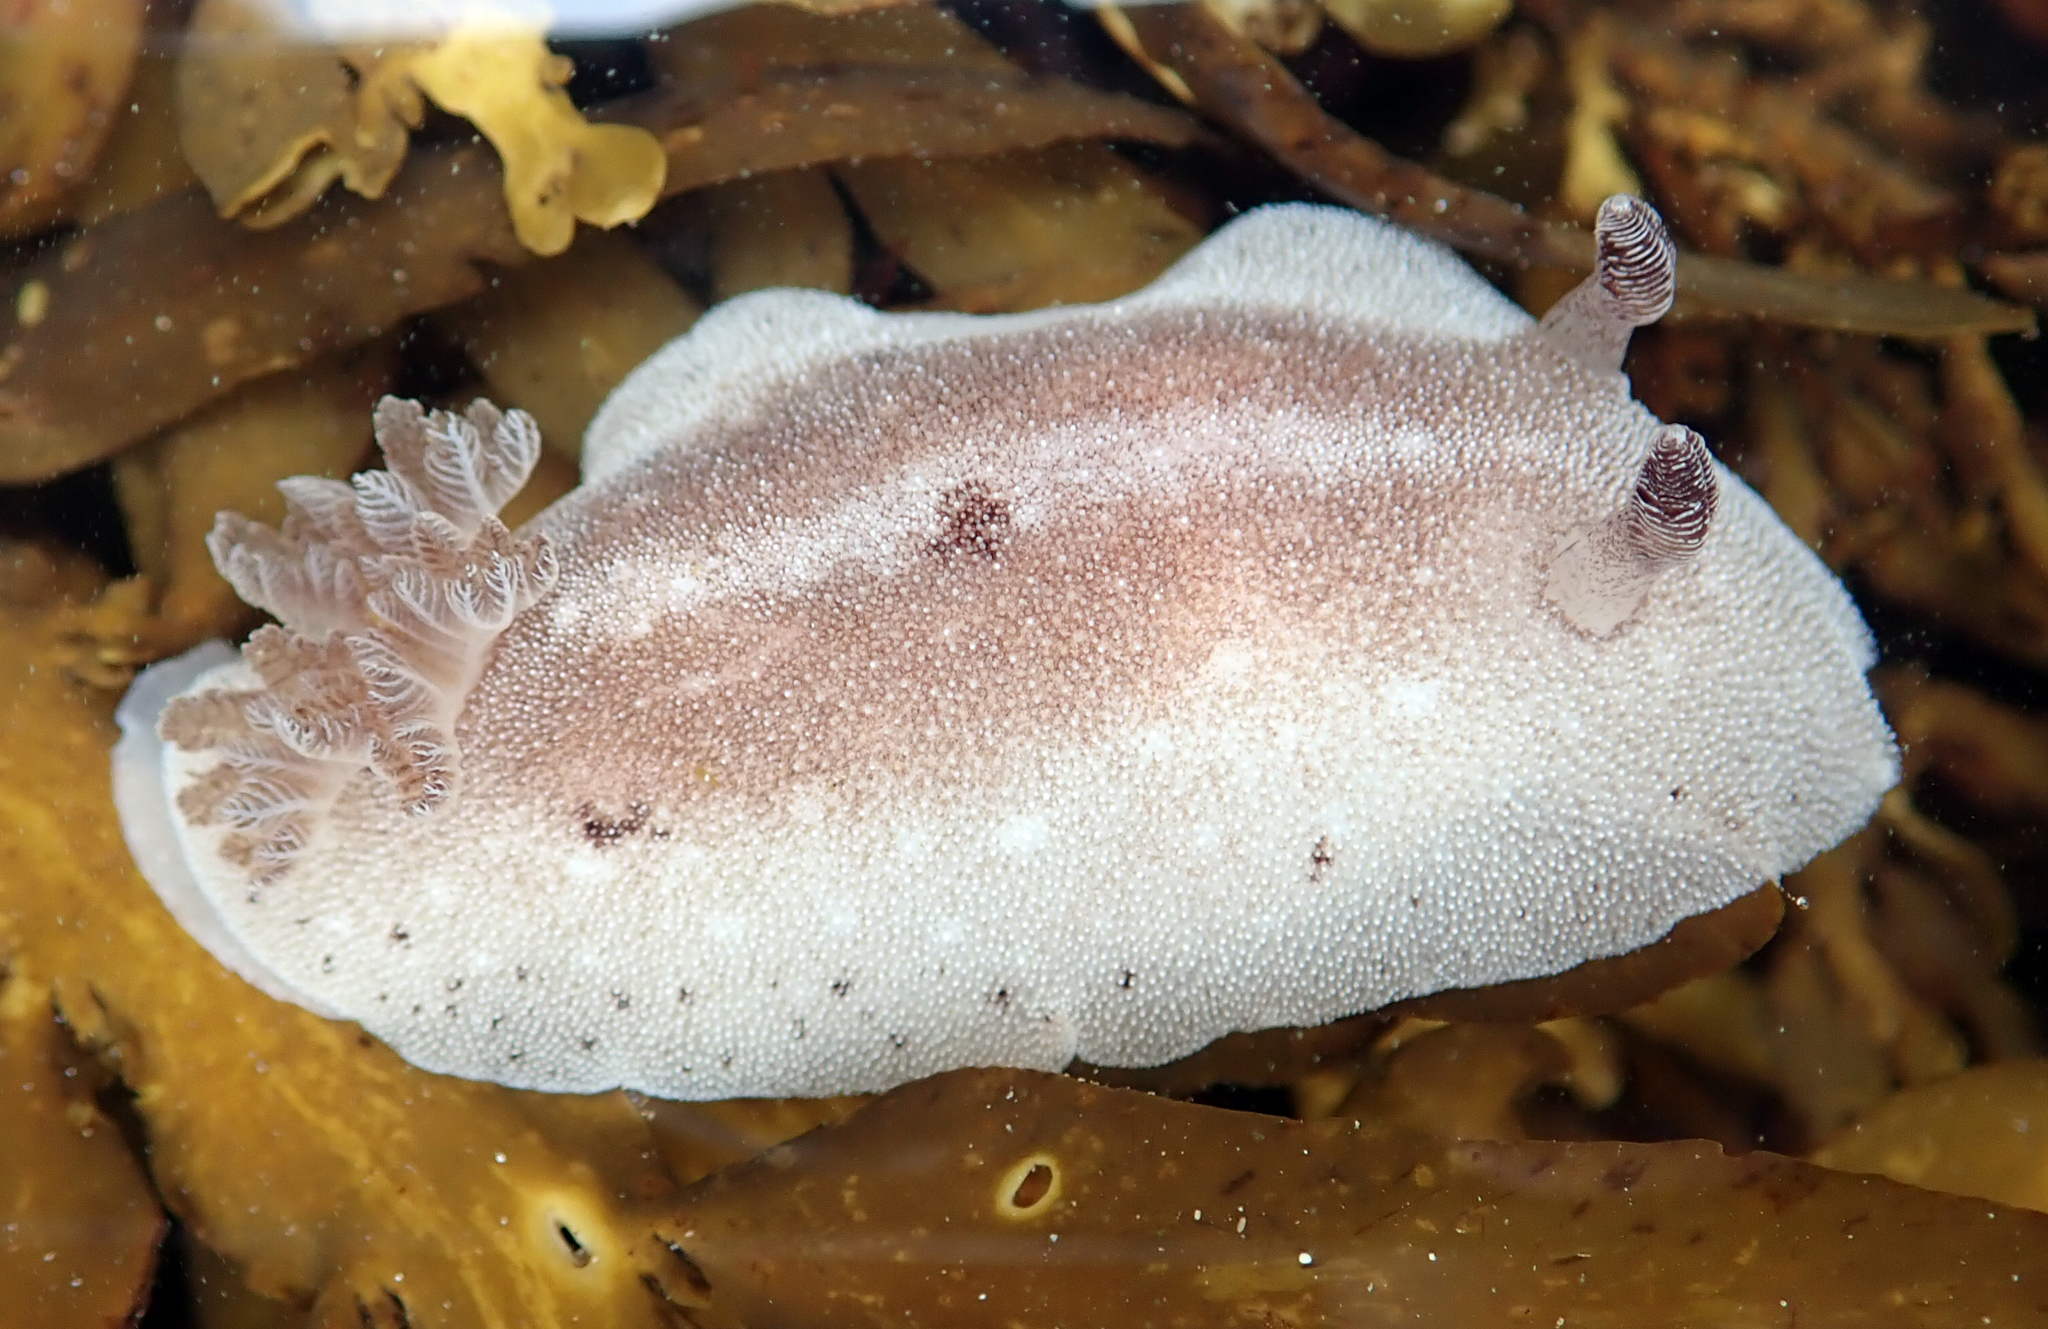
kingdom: Animalia
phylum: Mollusca
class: Gastropoda
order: Nudibranchia
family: Discodorididae
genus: Alloiodoris
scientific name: Alloiodoris lanuginata
